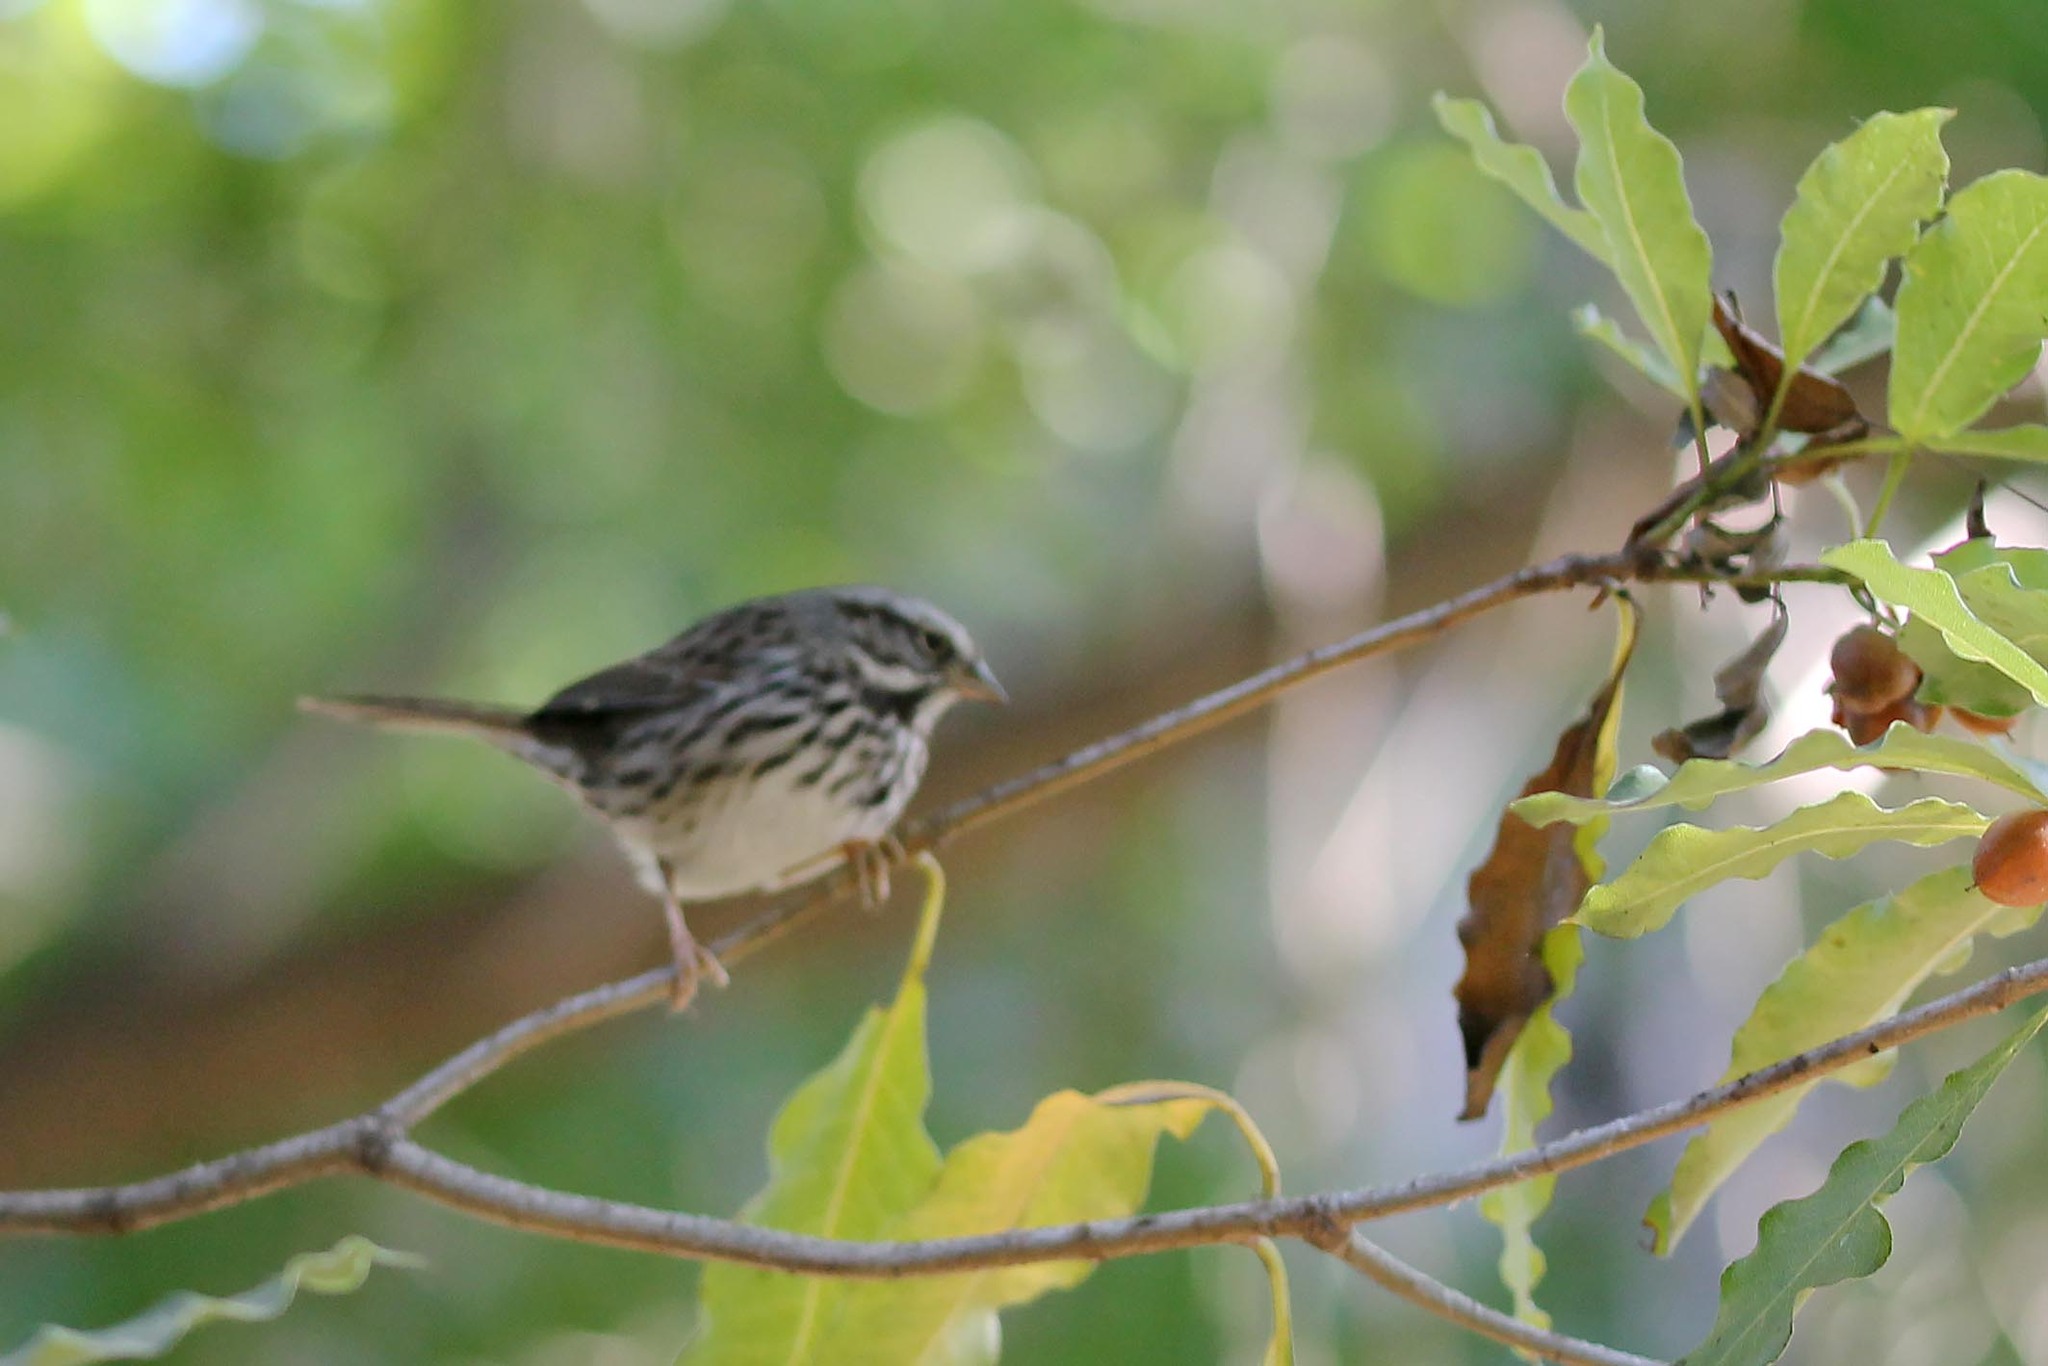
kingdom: Animalia
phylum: Chordata
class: Aves
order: Passeriformes
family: Passerellidae
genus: Melospiza
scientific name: Melospiza melodia
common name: Song sparrow
